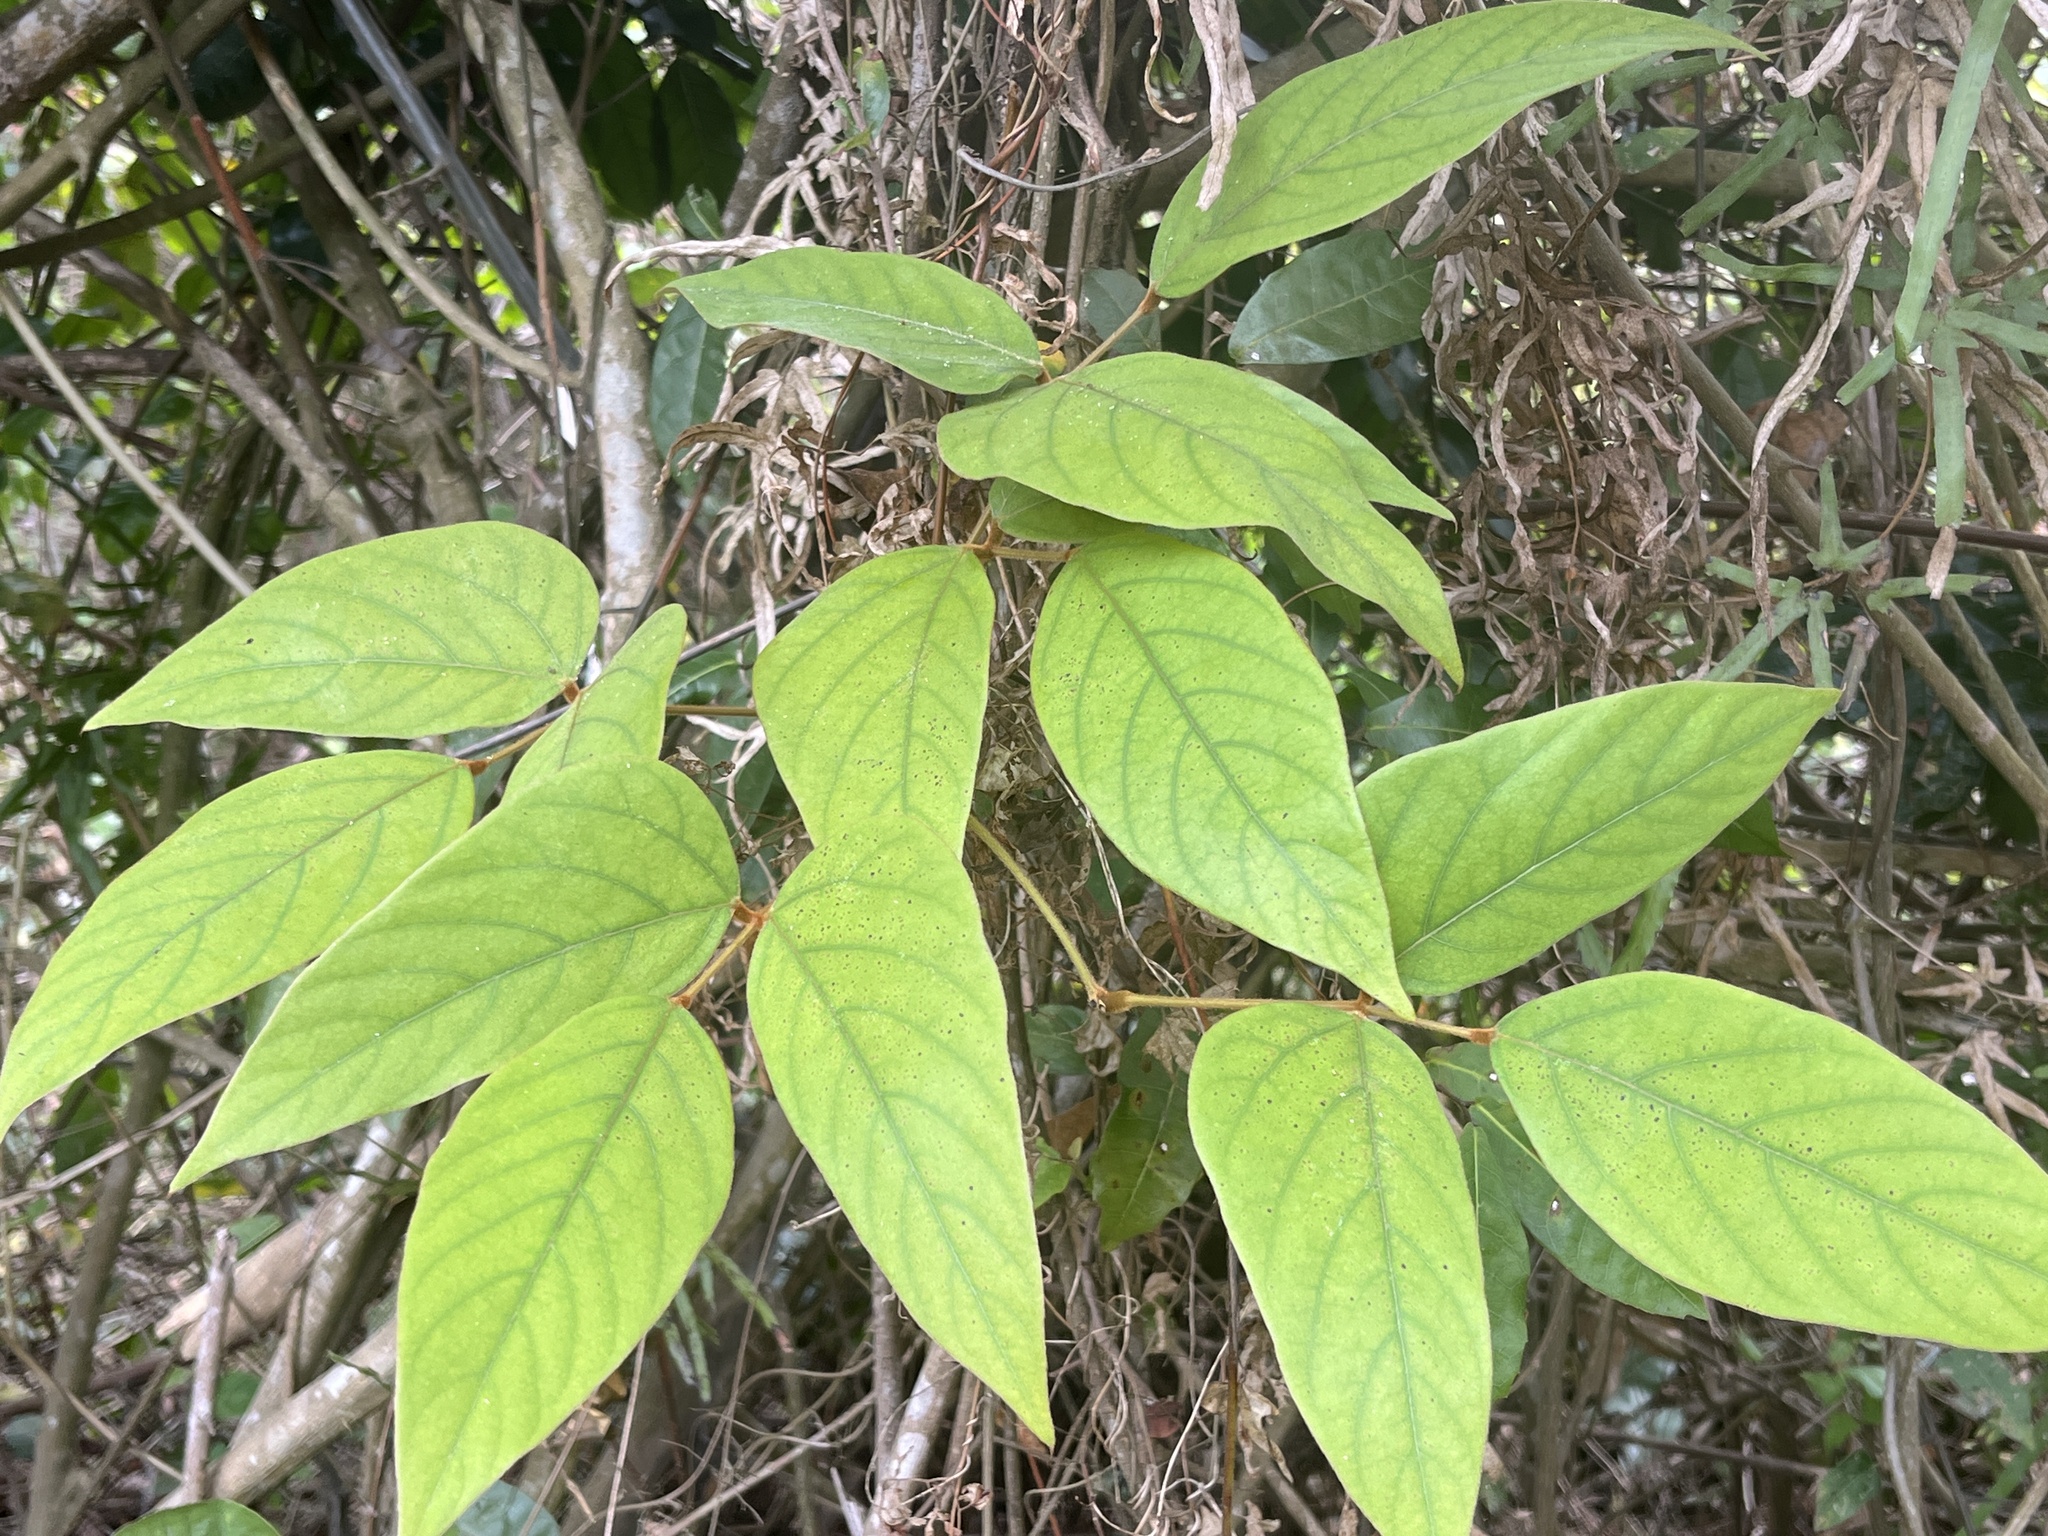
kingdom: Plantae
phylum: Tracheophyta
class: Magnoliopsida
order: Fabales
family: Fabaceae
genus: Mucuna
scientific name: Mucuna macrocarpa
